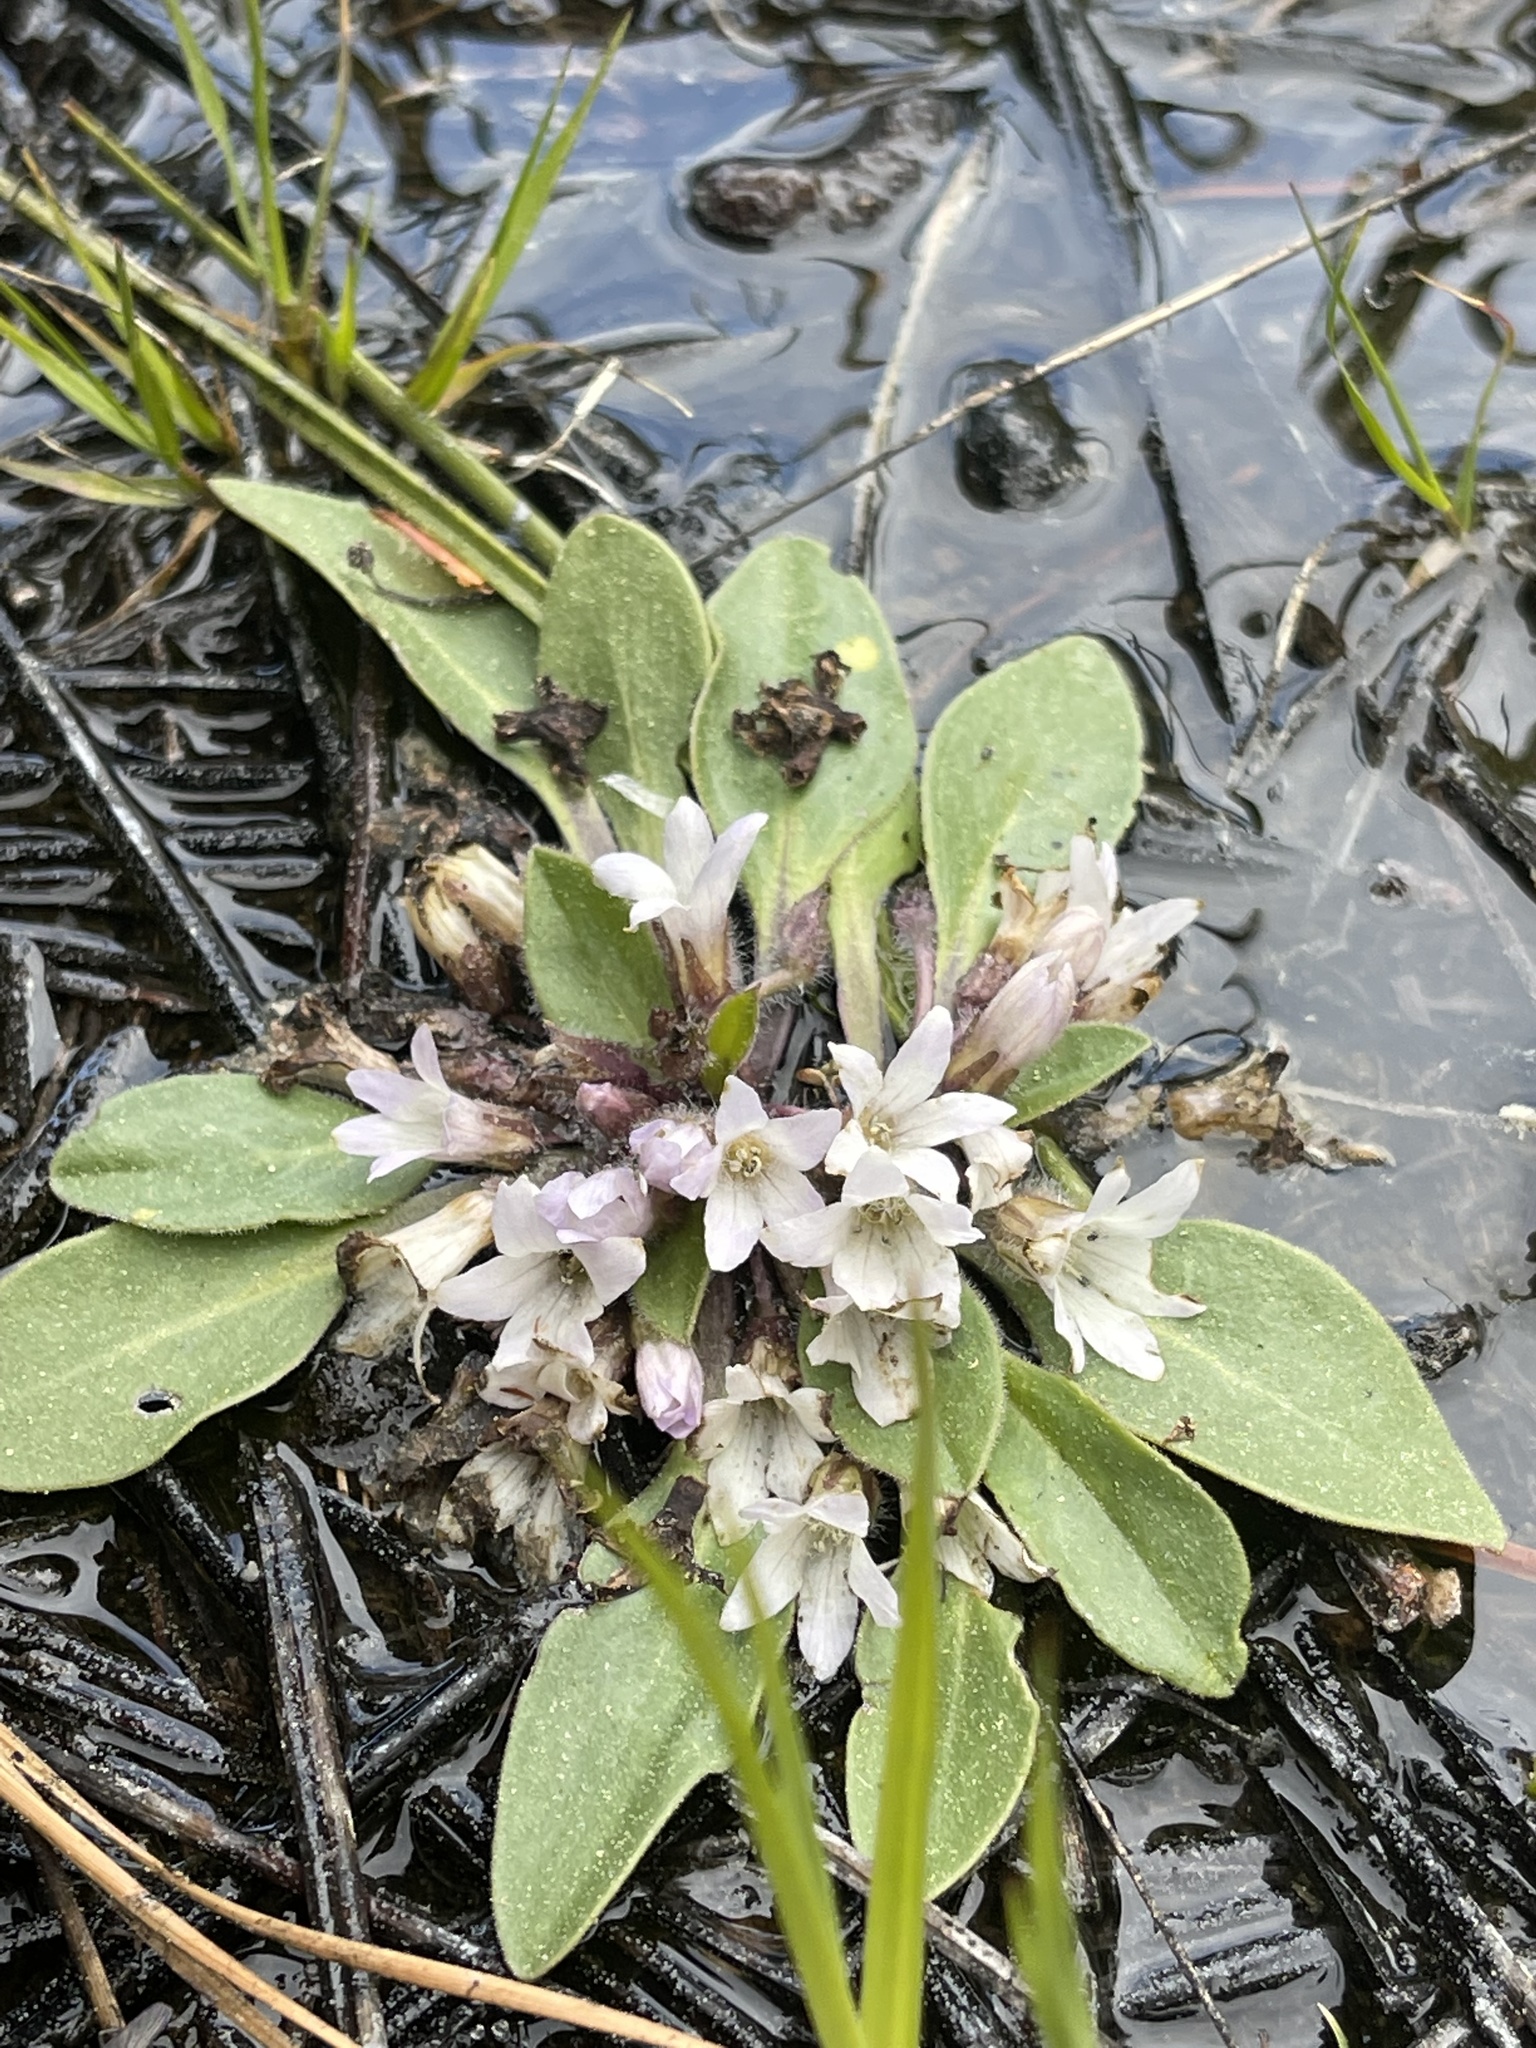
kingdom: Plantae
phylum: Tracheophyta
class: Magnoliopsida
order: Boraginales
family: Hydrophyllaceae
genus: Hesperochiron
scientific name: Hesperochiron californicus
